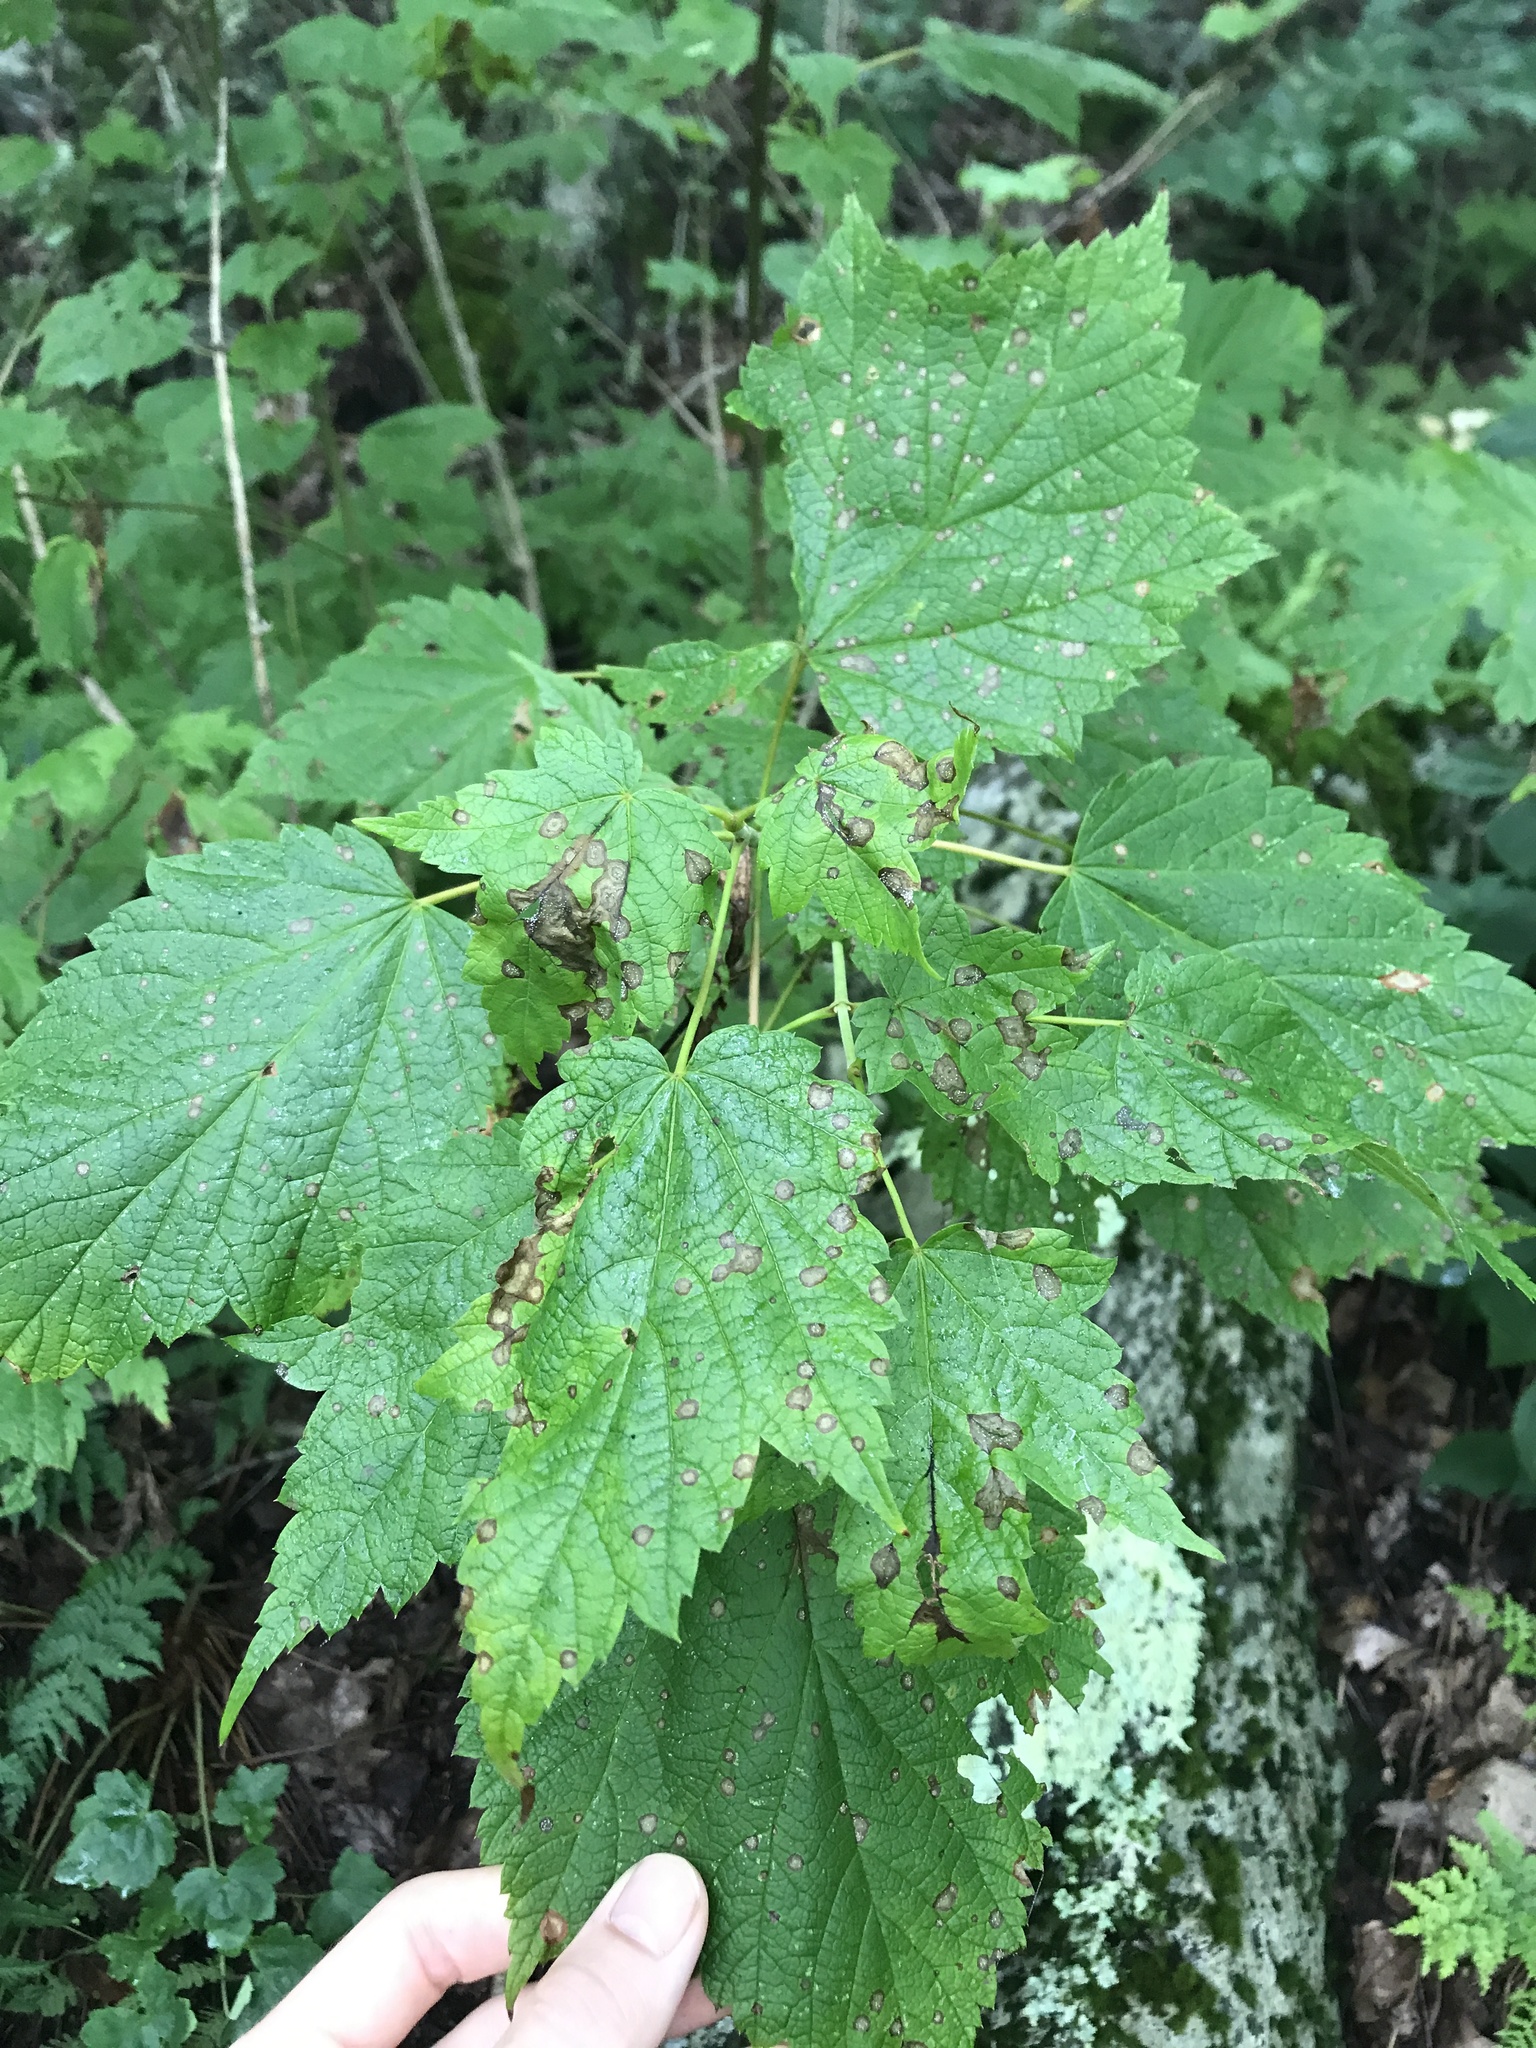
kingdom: Plantae
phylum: Tracheophyta
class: Magnoliopsida
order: Sapindales
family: Sapindaceae
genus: Acer
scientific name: Acer spicatum
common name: Mountain maple
